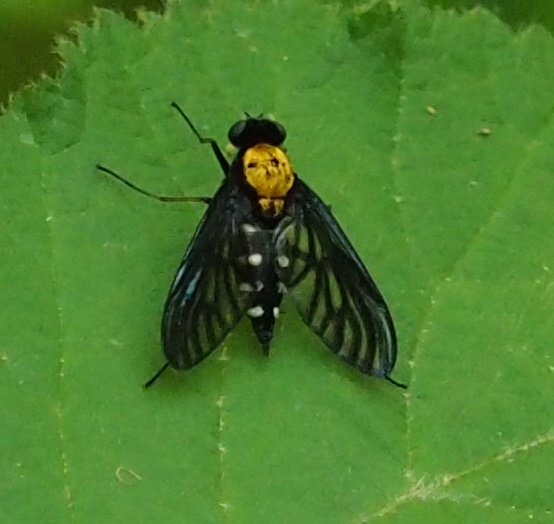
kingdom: Animalia
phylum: Arthropoda
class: Insecta
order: Diptera
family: Rhagionidae
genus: Chrysopilus
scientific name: Chrysopilus thoracicus
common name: Golden-backed snipe fly
